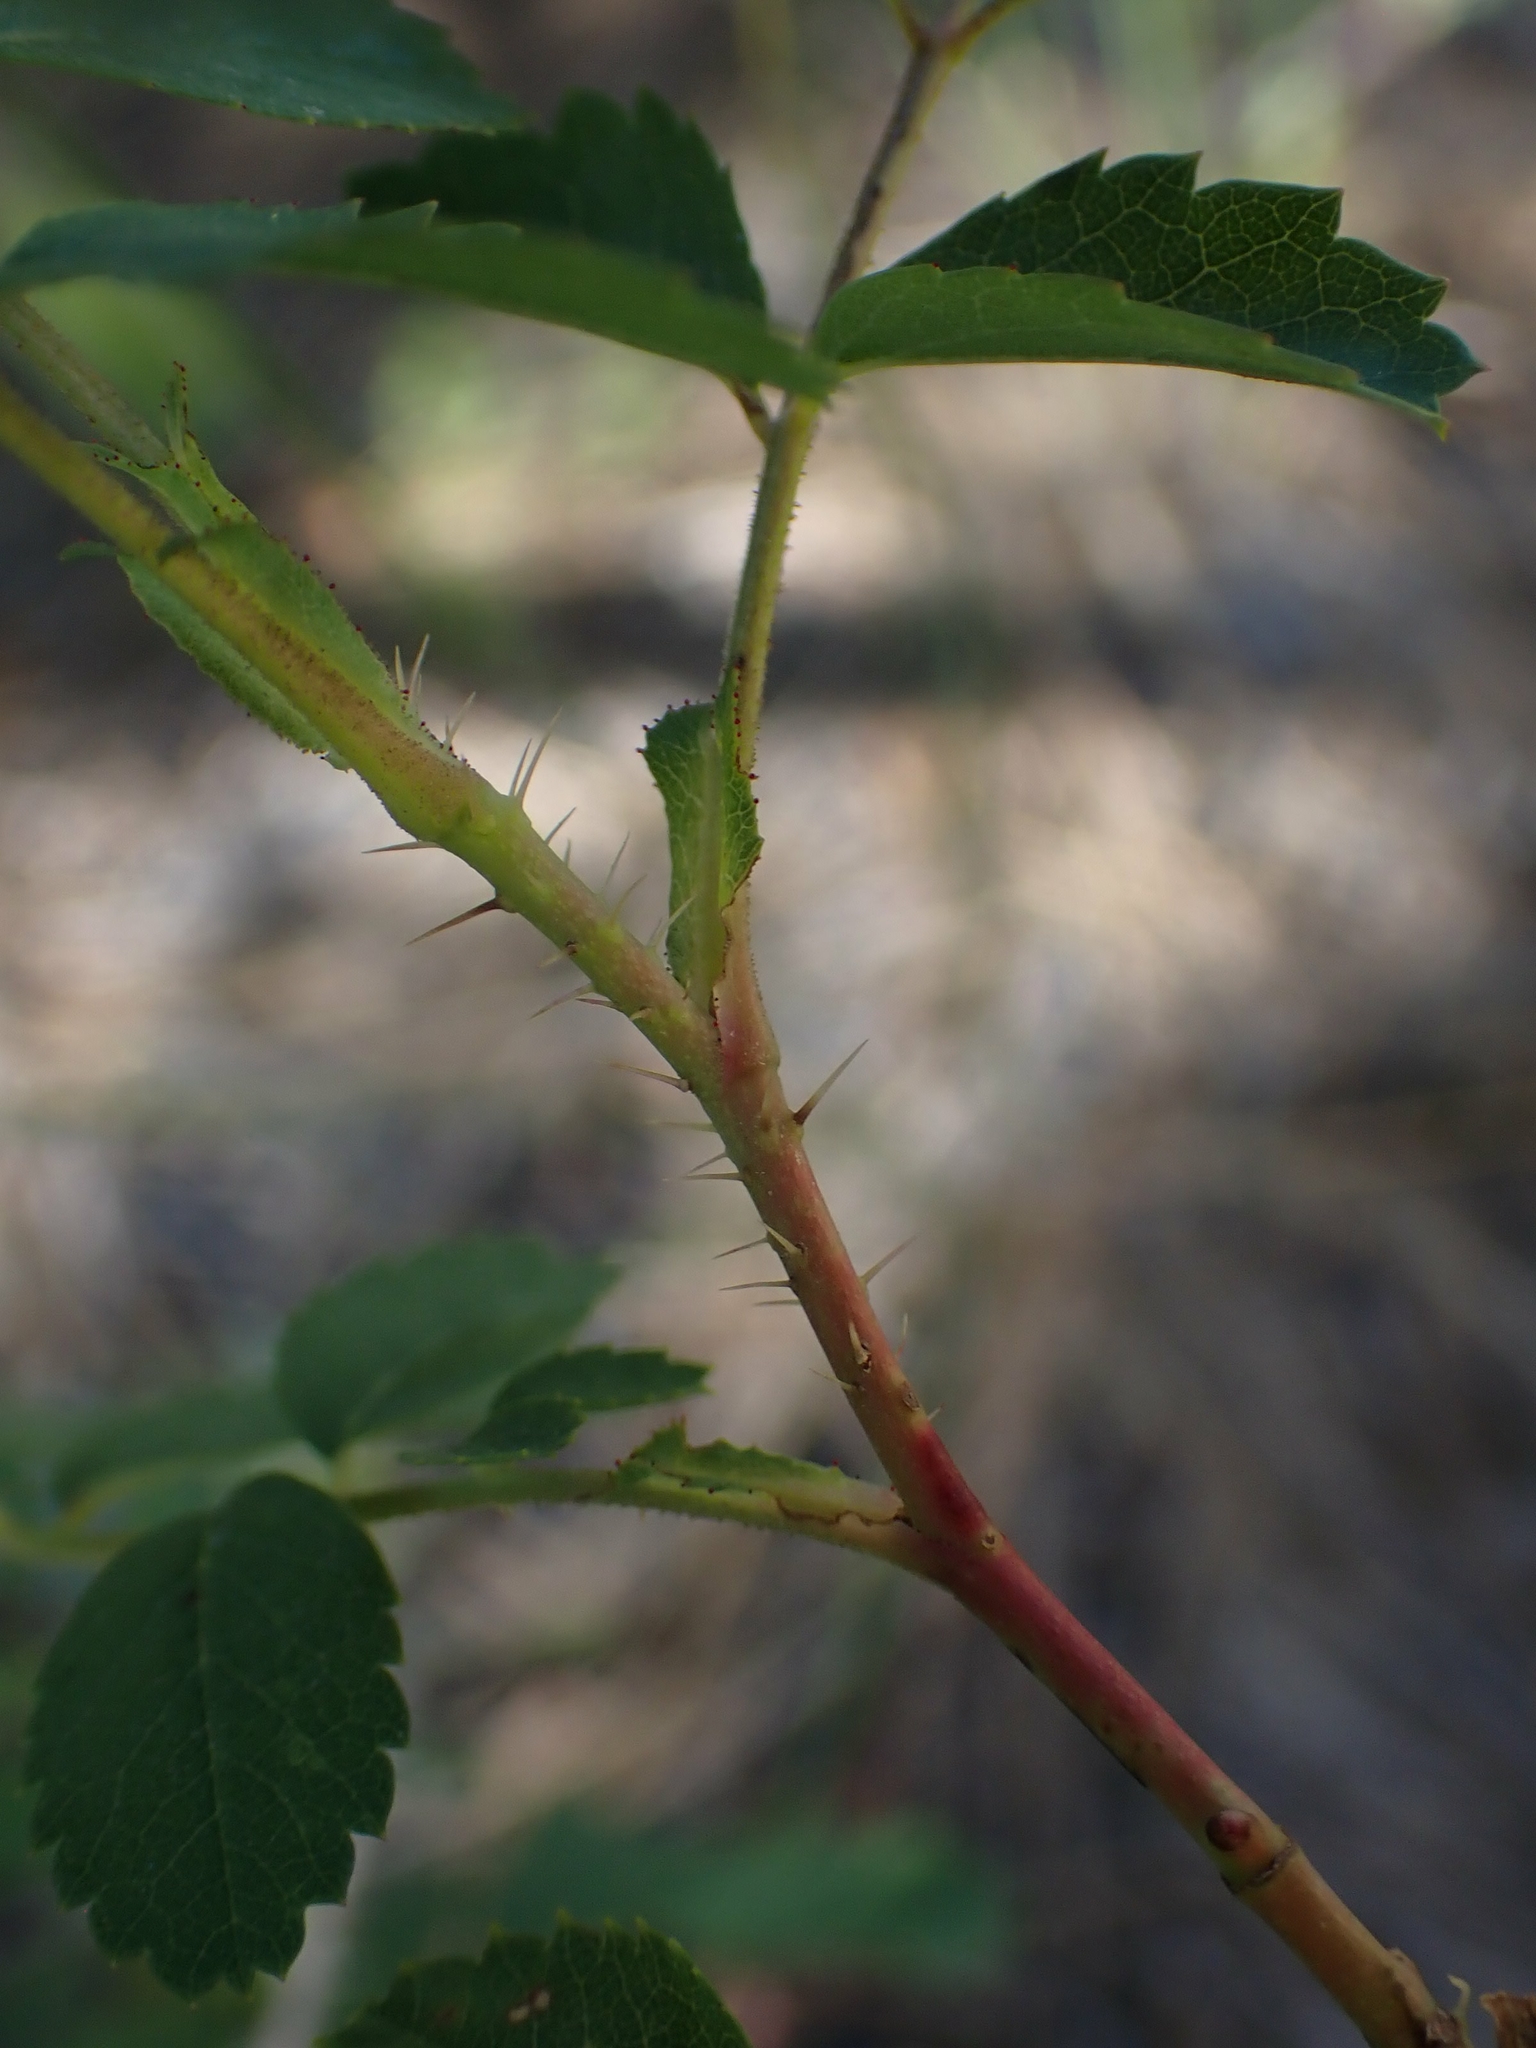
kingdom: Plantae
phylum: Tracheophyta
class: Magnoliopsida
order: Rosales
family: Rosaceae
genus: Rosa
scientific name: Rosa woodsii
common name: Woods's rose
